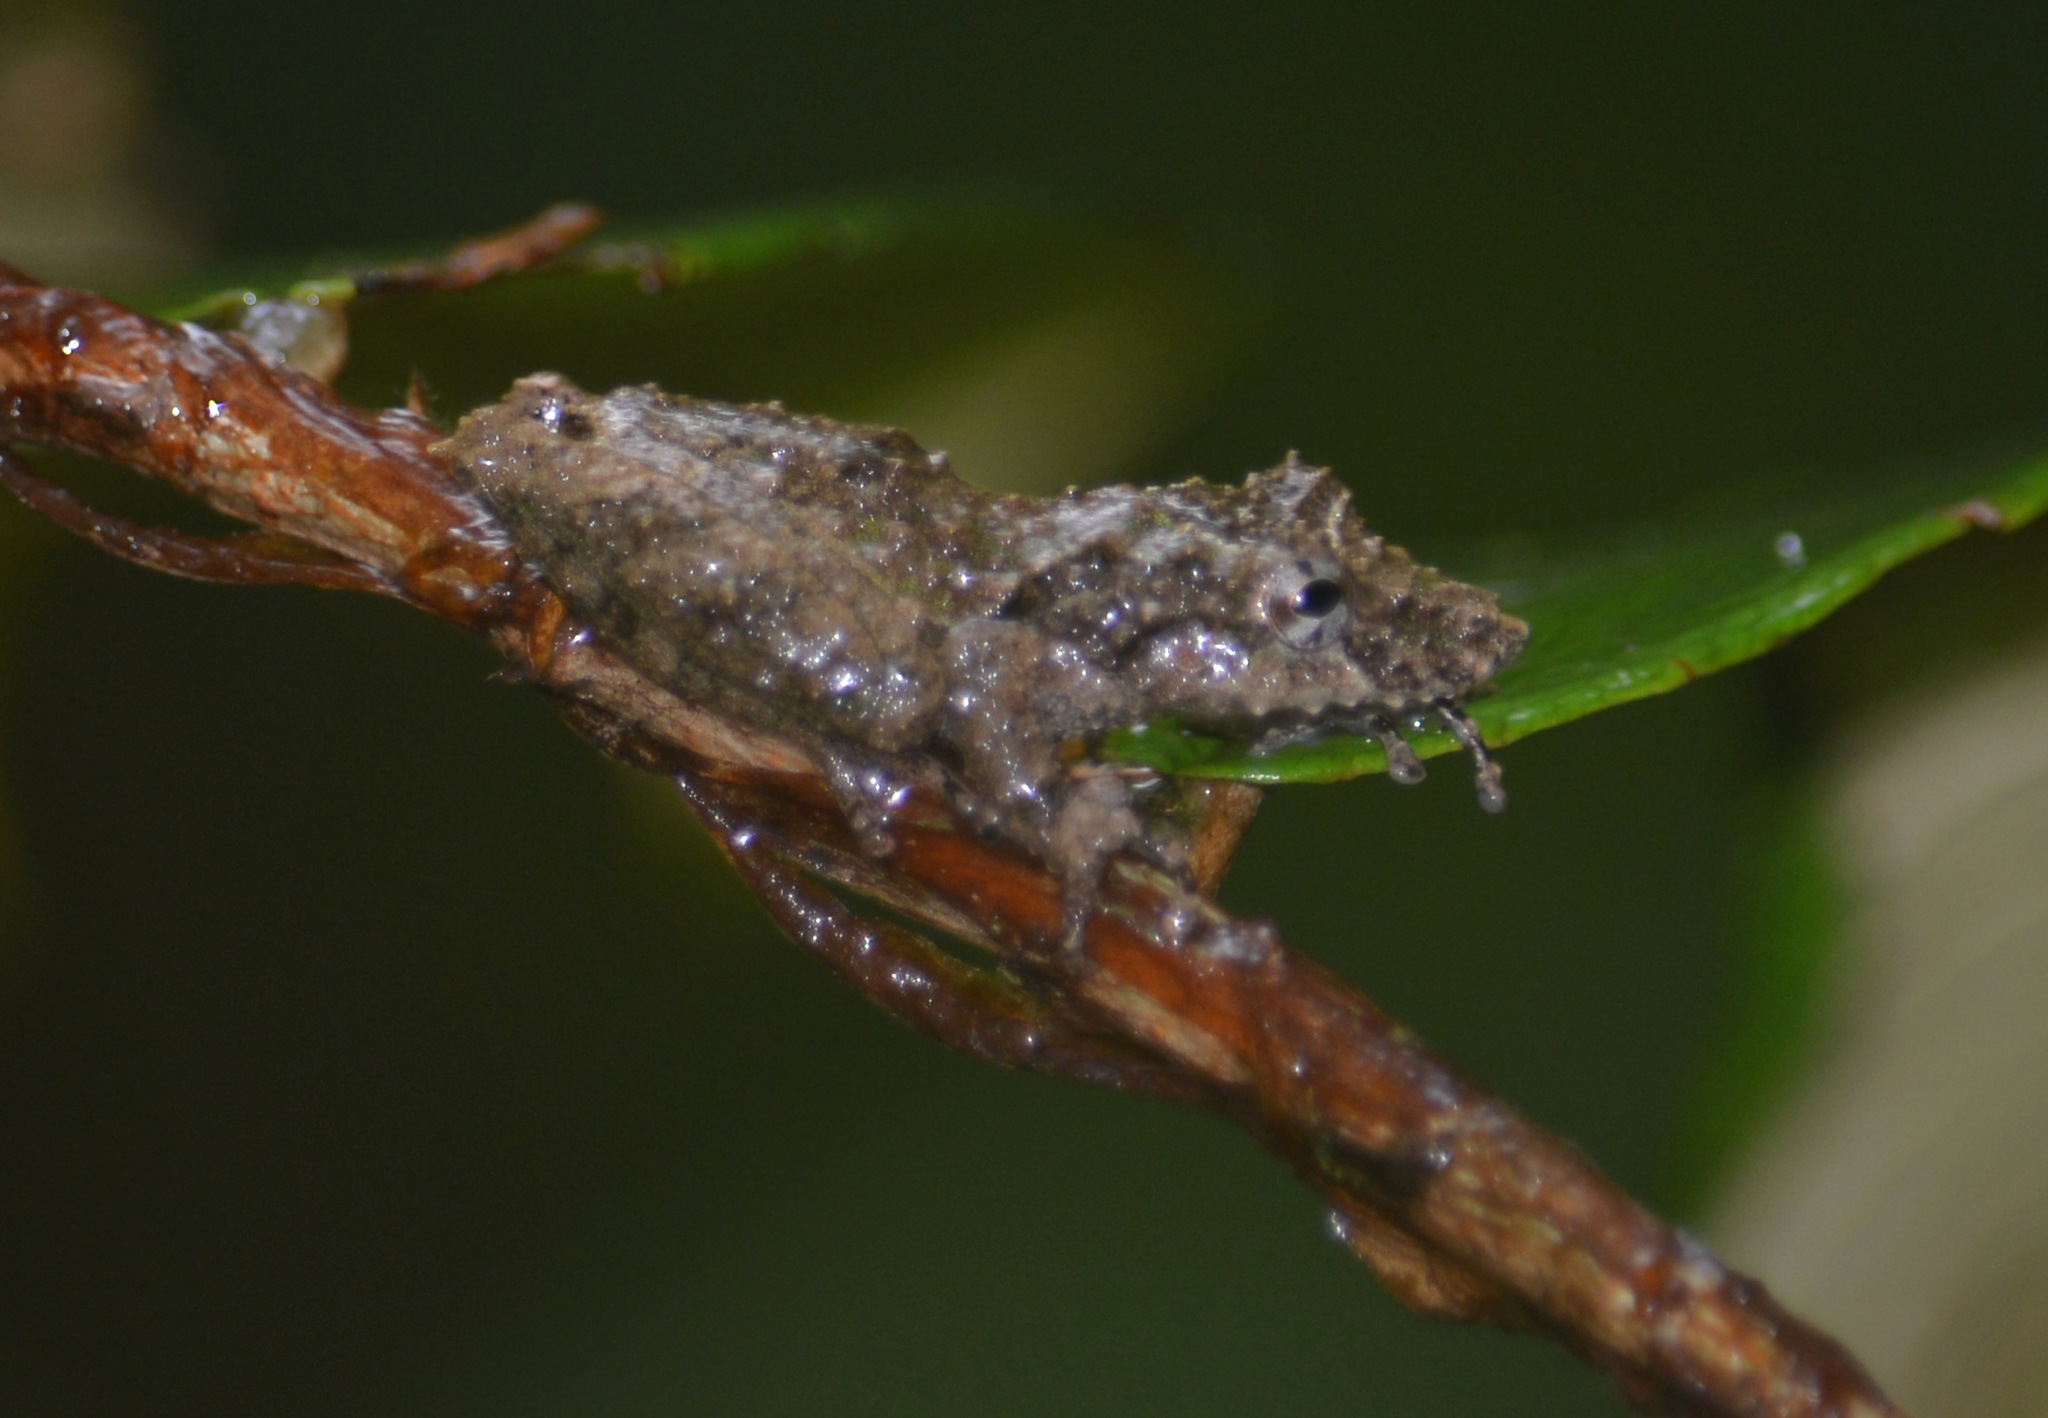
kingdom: Animalia
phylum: Chordata
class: Amphibia
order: Anura
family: Hylidae
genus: Scinax
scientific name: Scinax nebulosus
